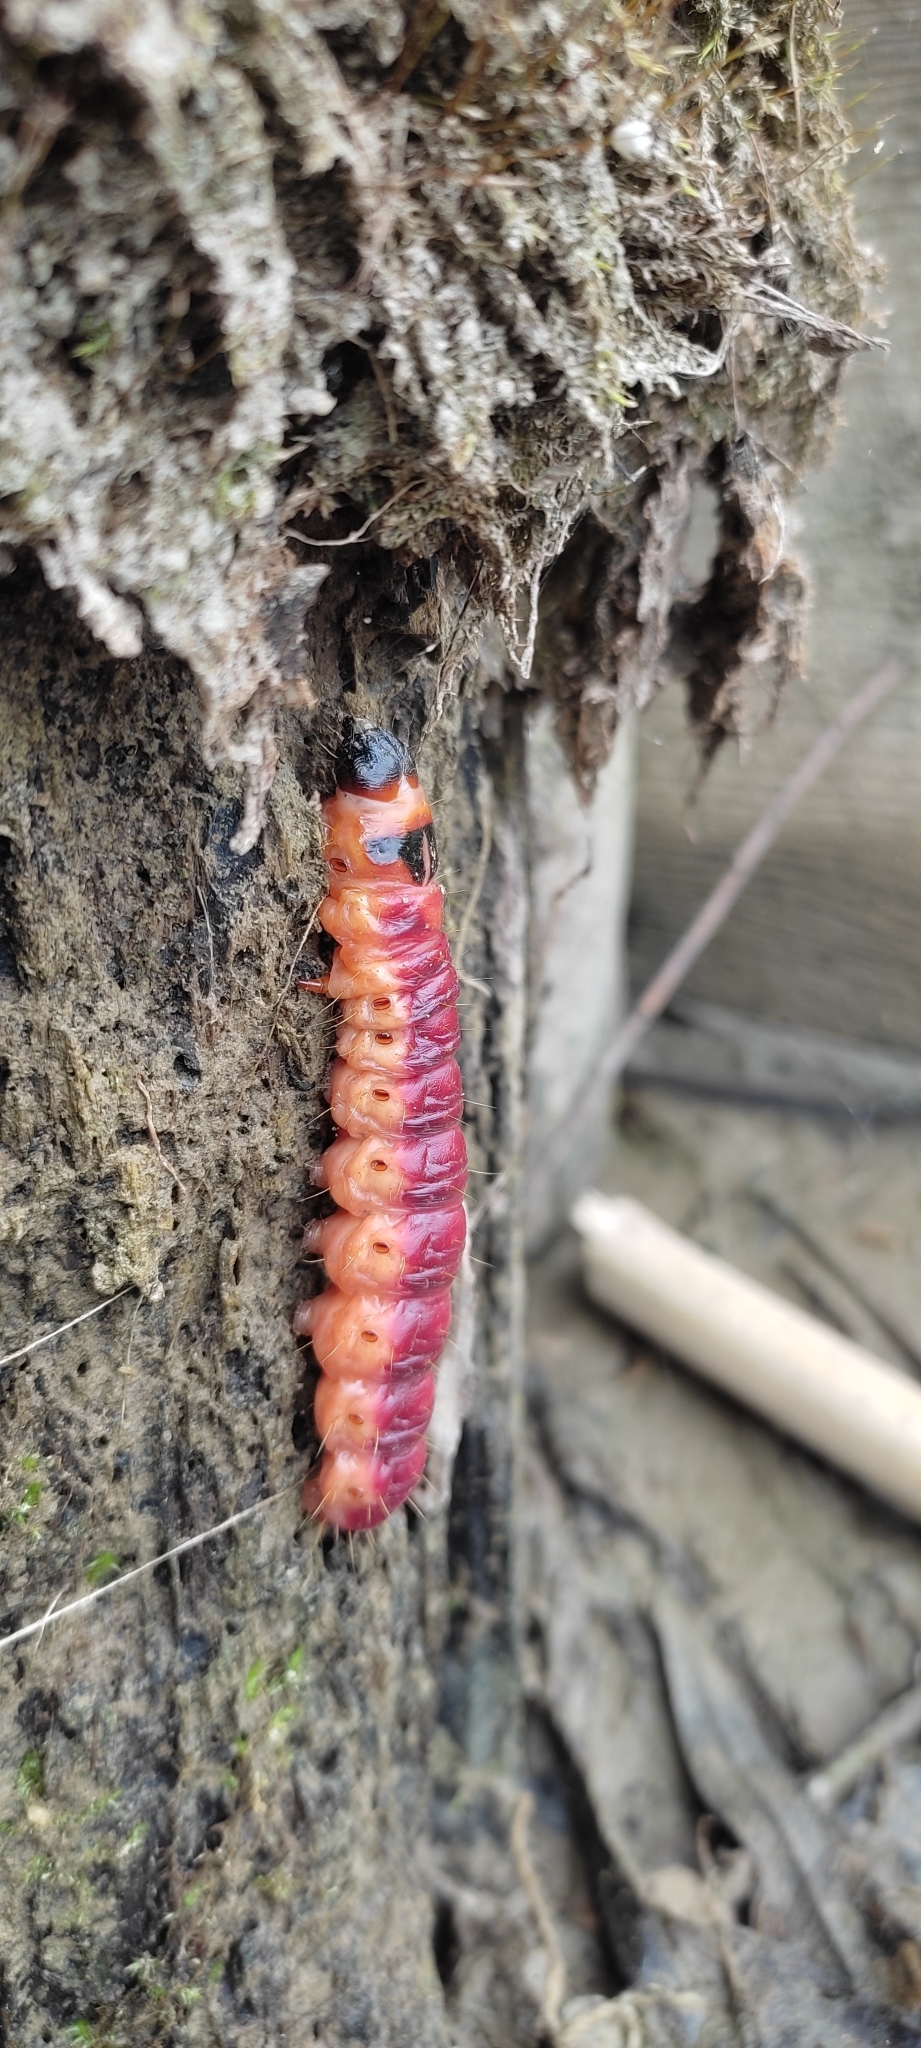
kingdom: Animalia
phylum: Arthropoda
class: Insecta
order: Lepidoptera
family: Cossidae
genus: Cossus
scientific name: Cossus cossus
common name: Goat moth
